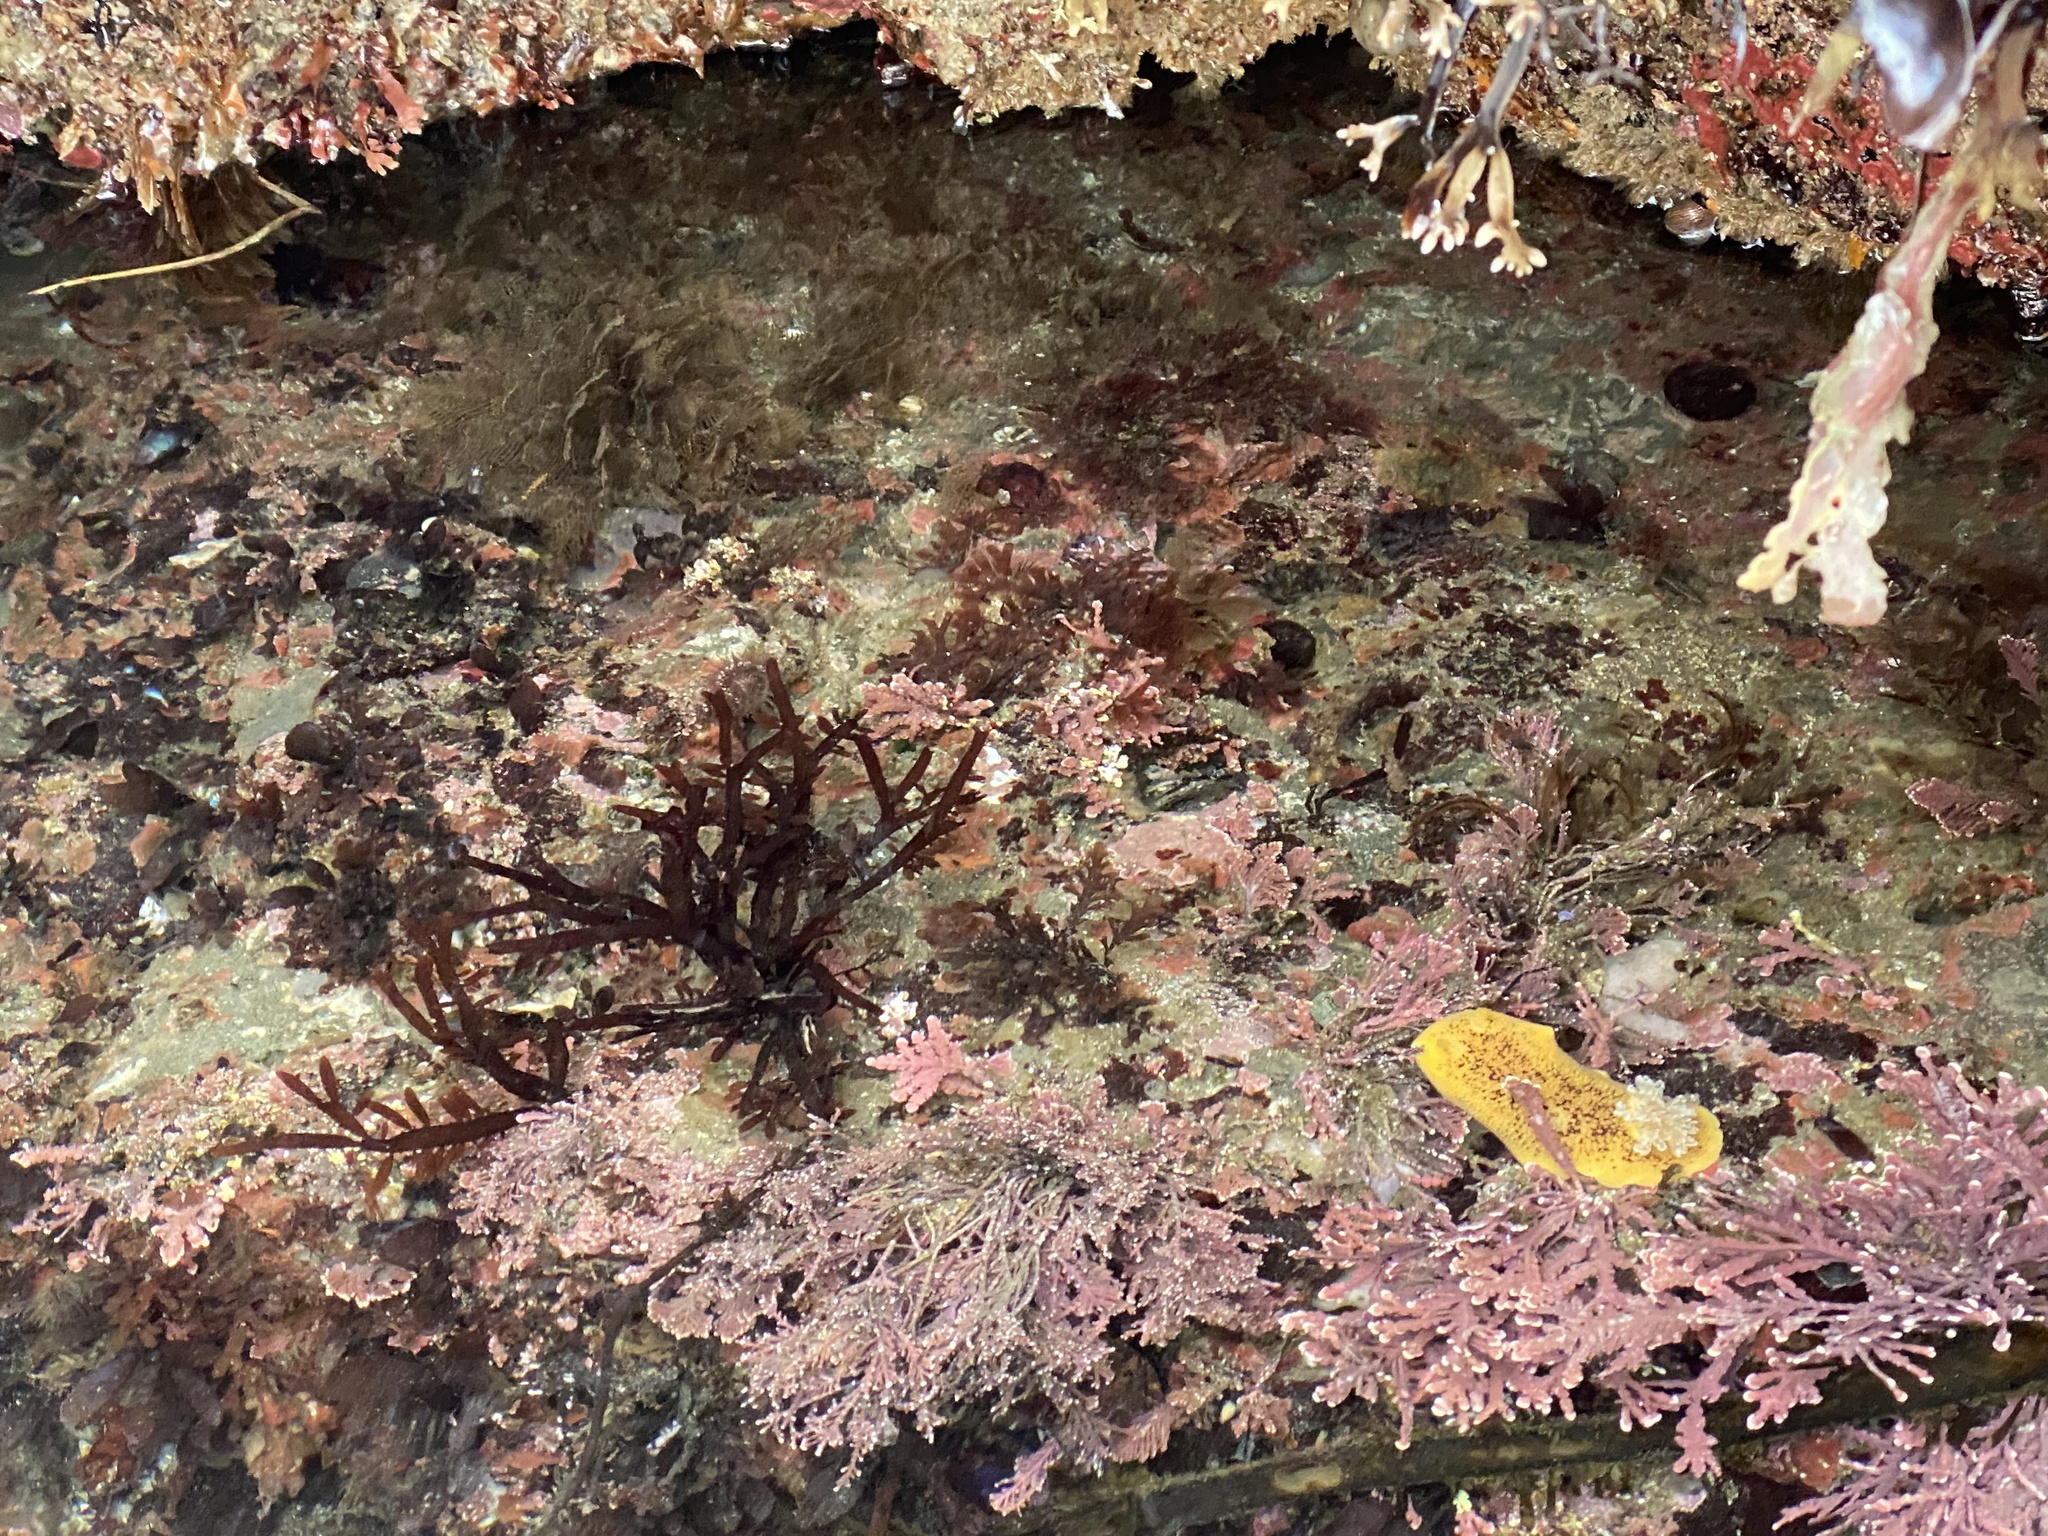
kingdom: Animalia
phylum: Mollusca
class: Gastropoda
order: Nudibranchia
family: Discodorididae
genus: Peltodoris
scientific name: Peltodoris nobilis
